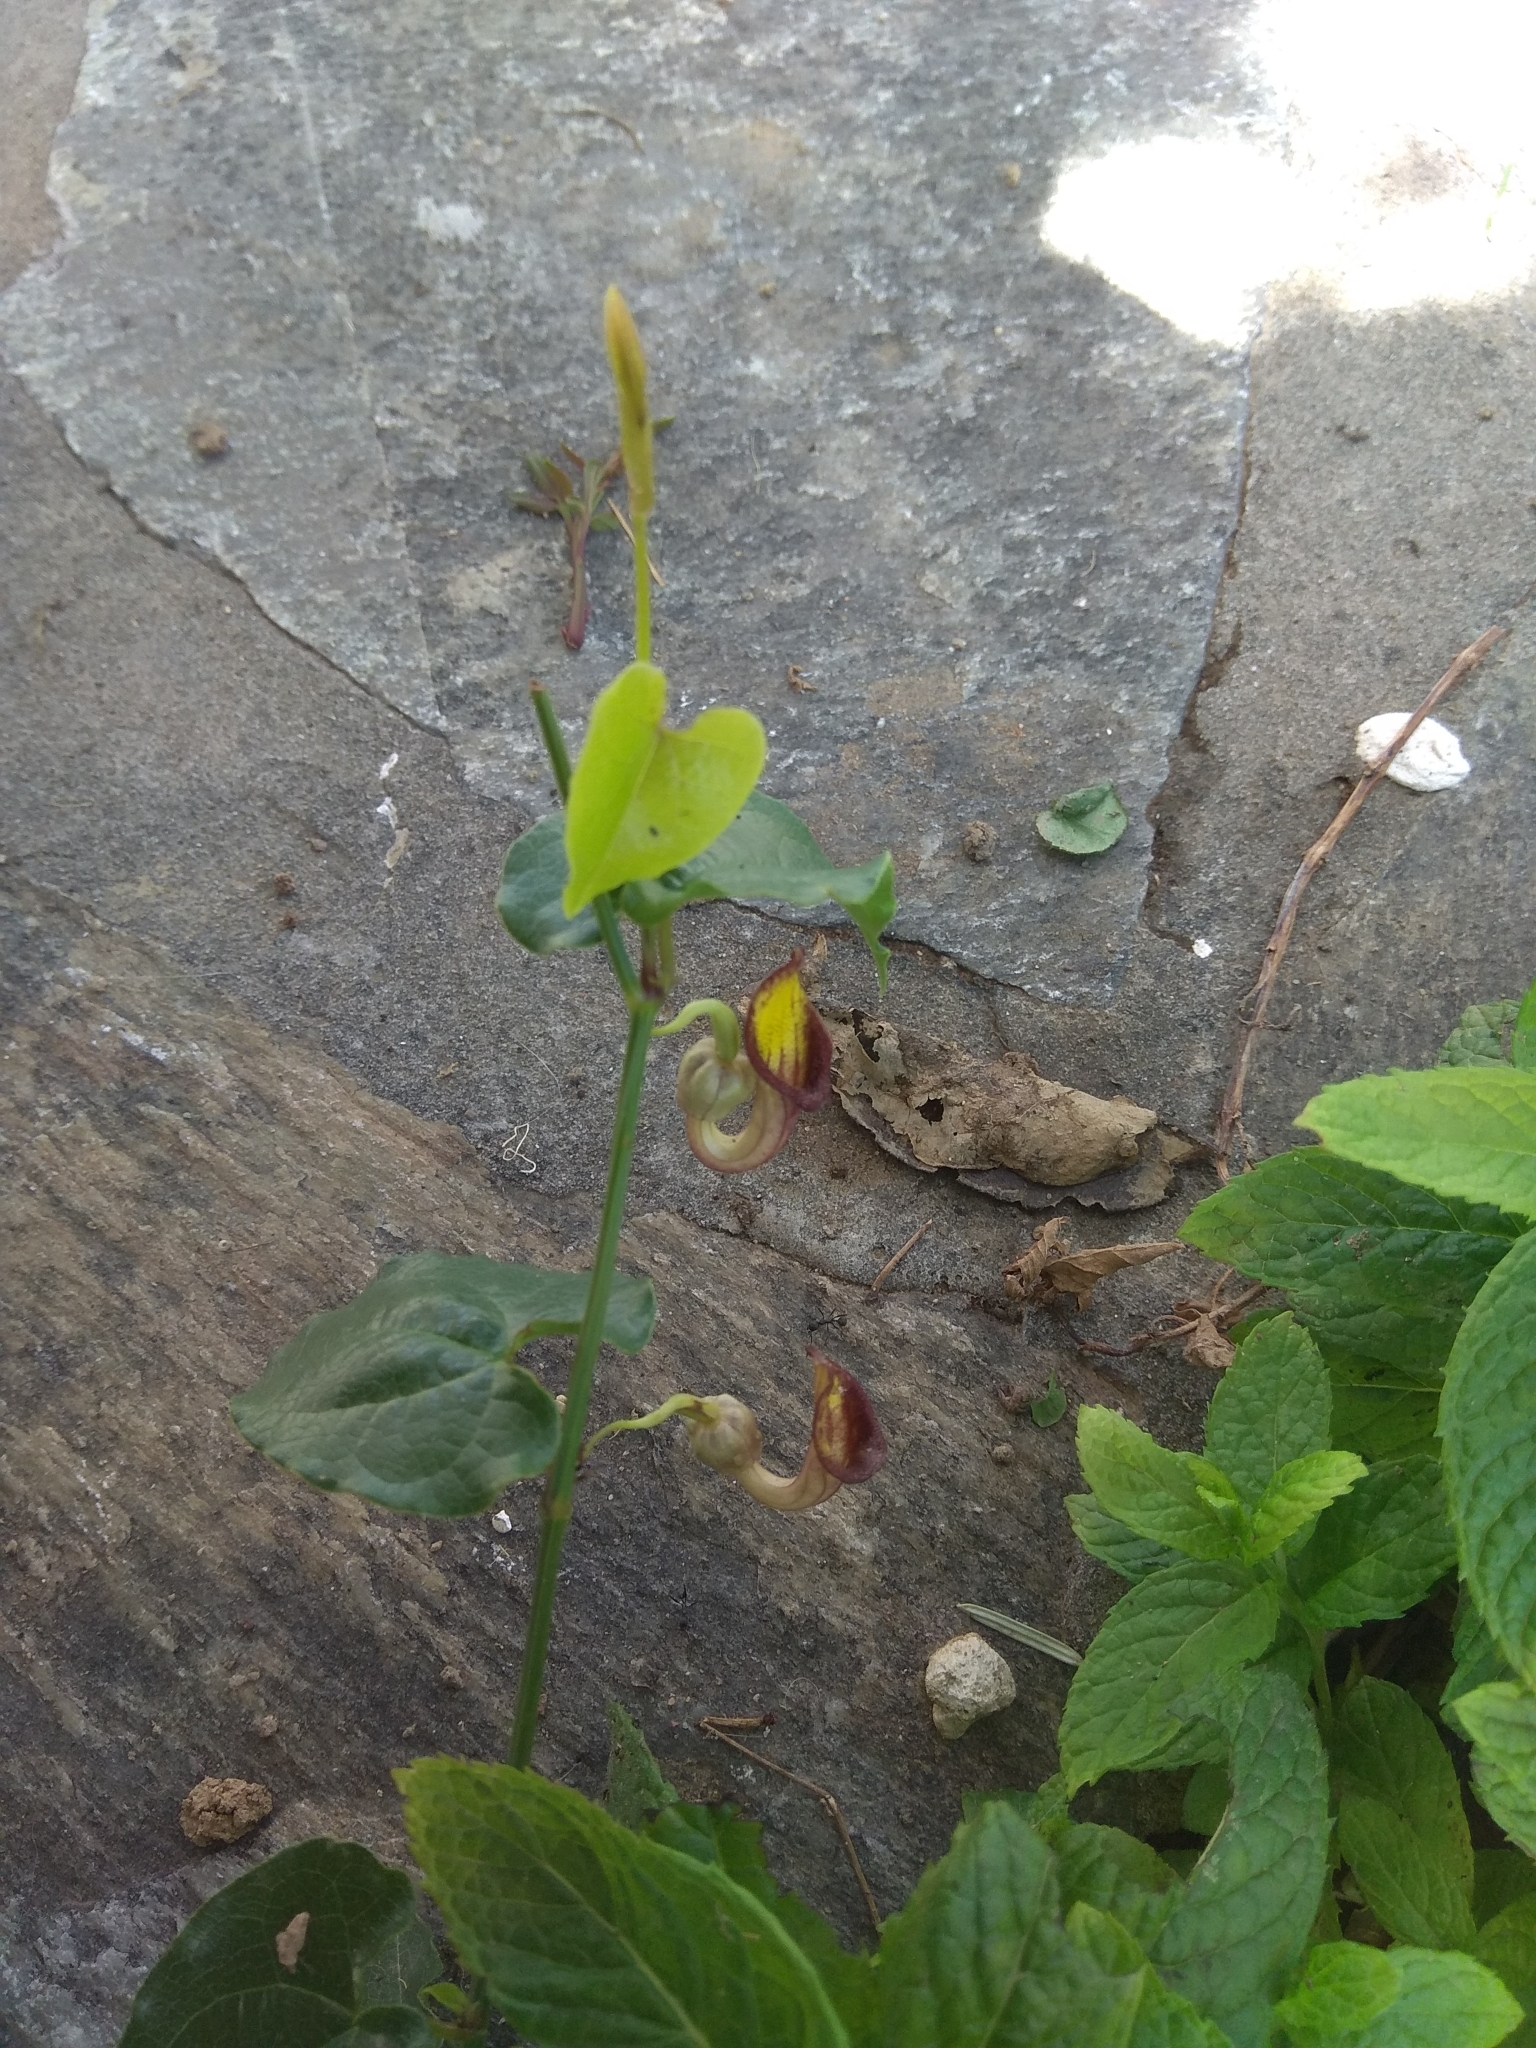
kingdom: Plantae
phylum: Tracheophyta
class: Magnoliopsida
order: Piperales
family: Aristolochiaceae
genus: Aristolochia
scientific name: Aristolochia sempervirens
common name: Long birthwort
